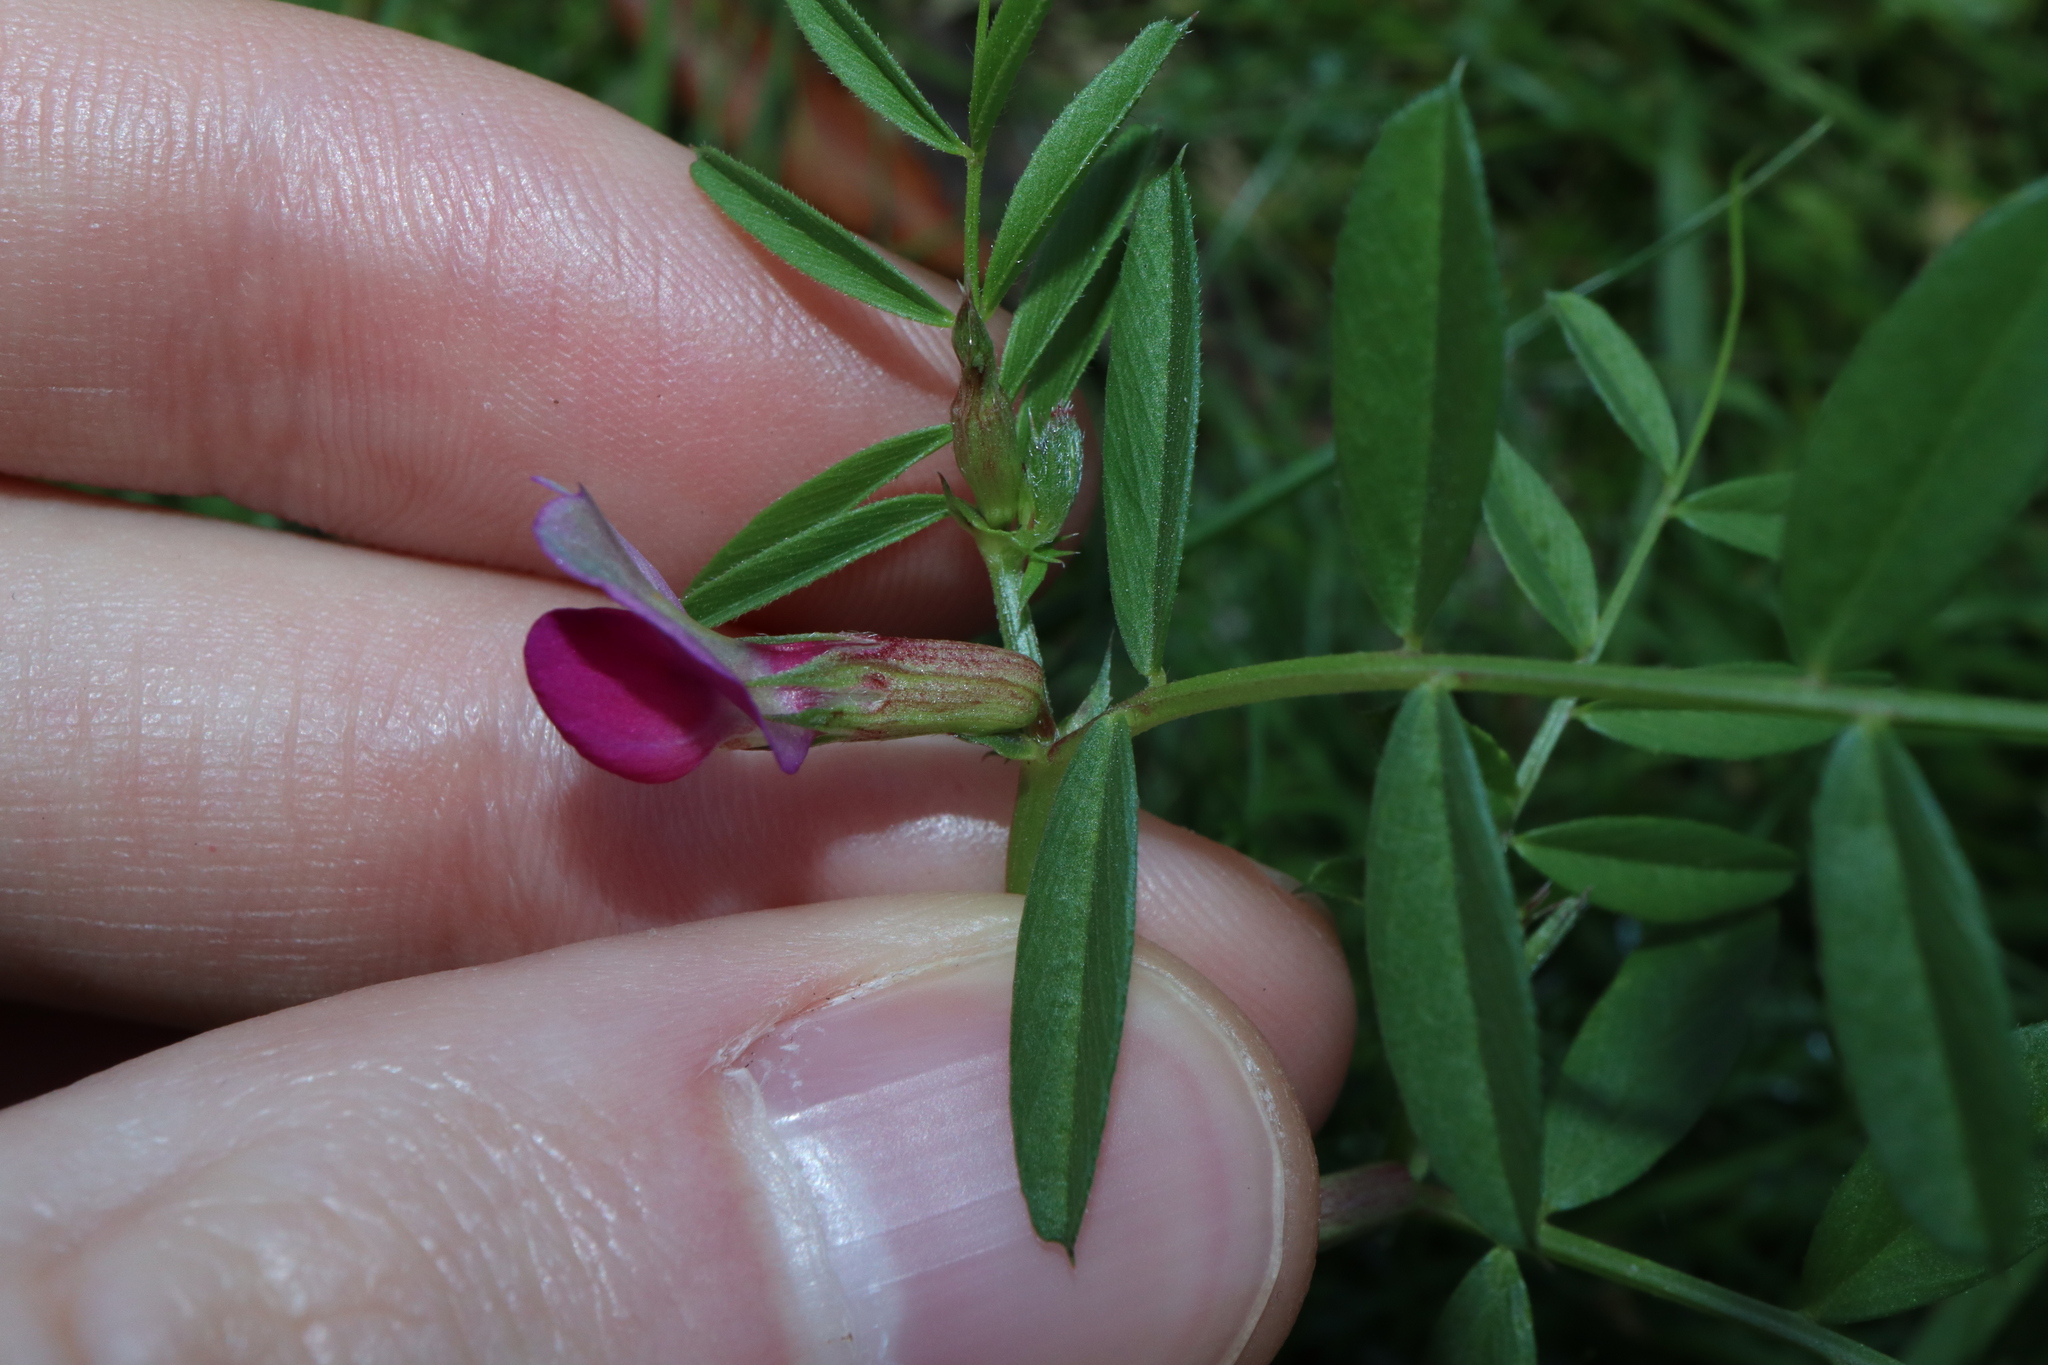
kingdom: Plantae
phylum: Tracheophyta
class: Magnoliopsida
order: Fabales
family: Fabaceae
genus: Vicia
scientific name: Vicia sativa
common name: Garden vetch
